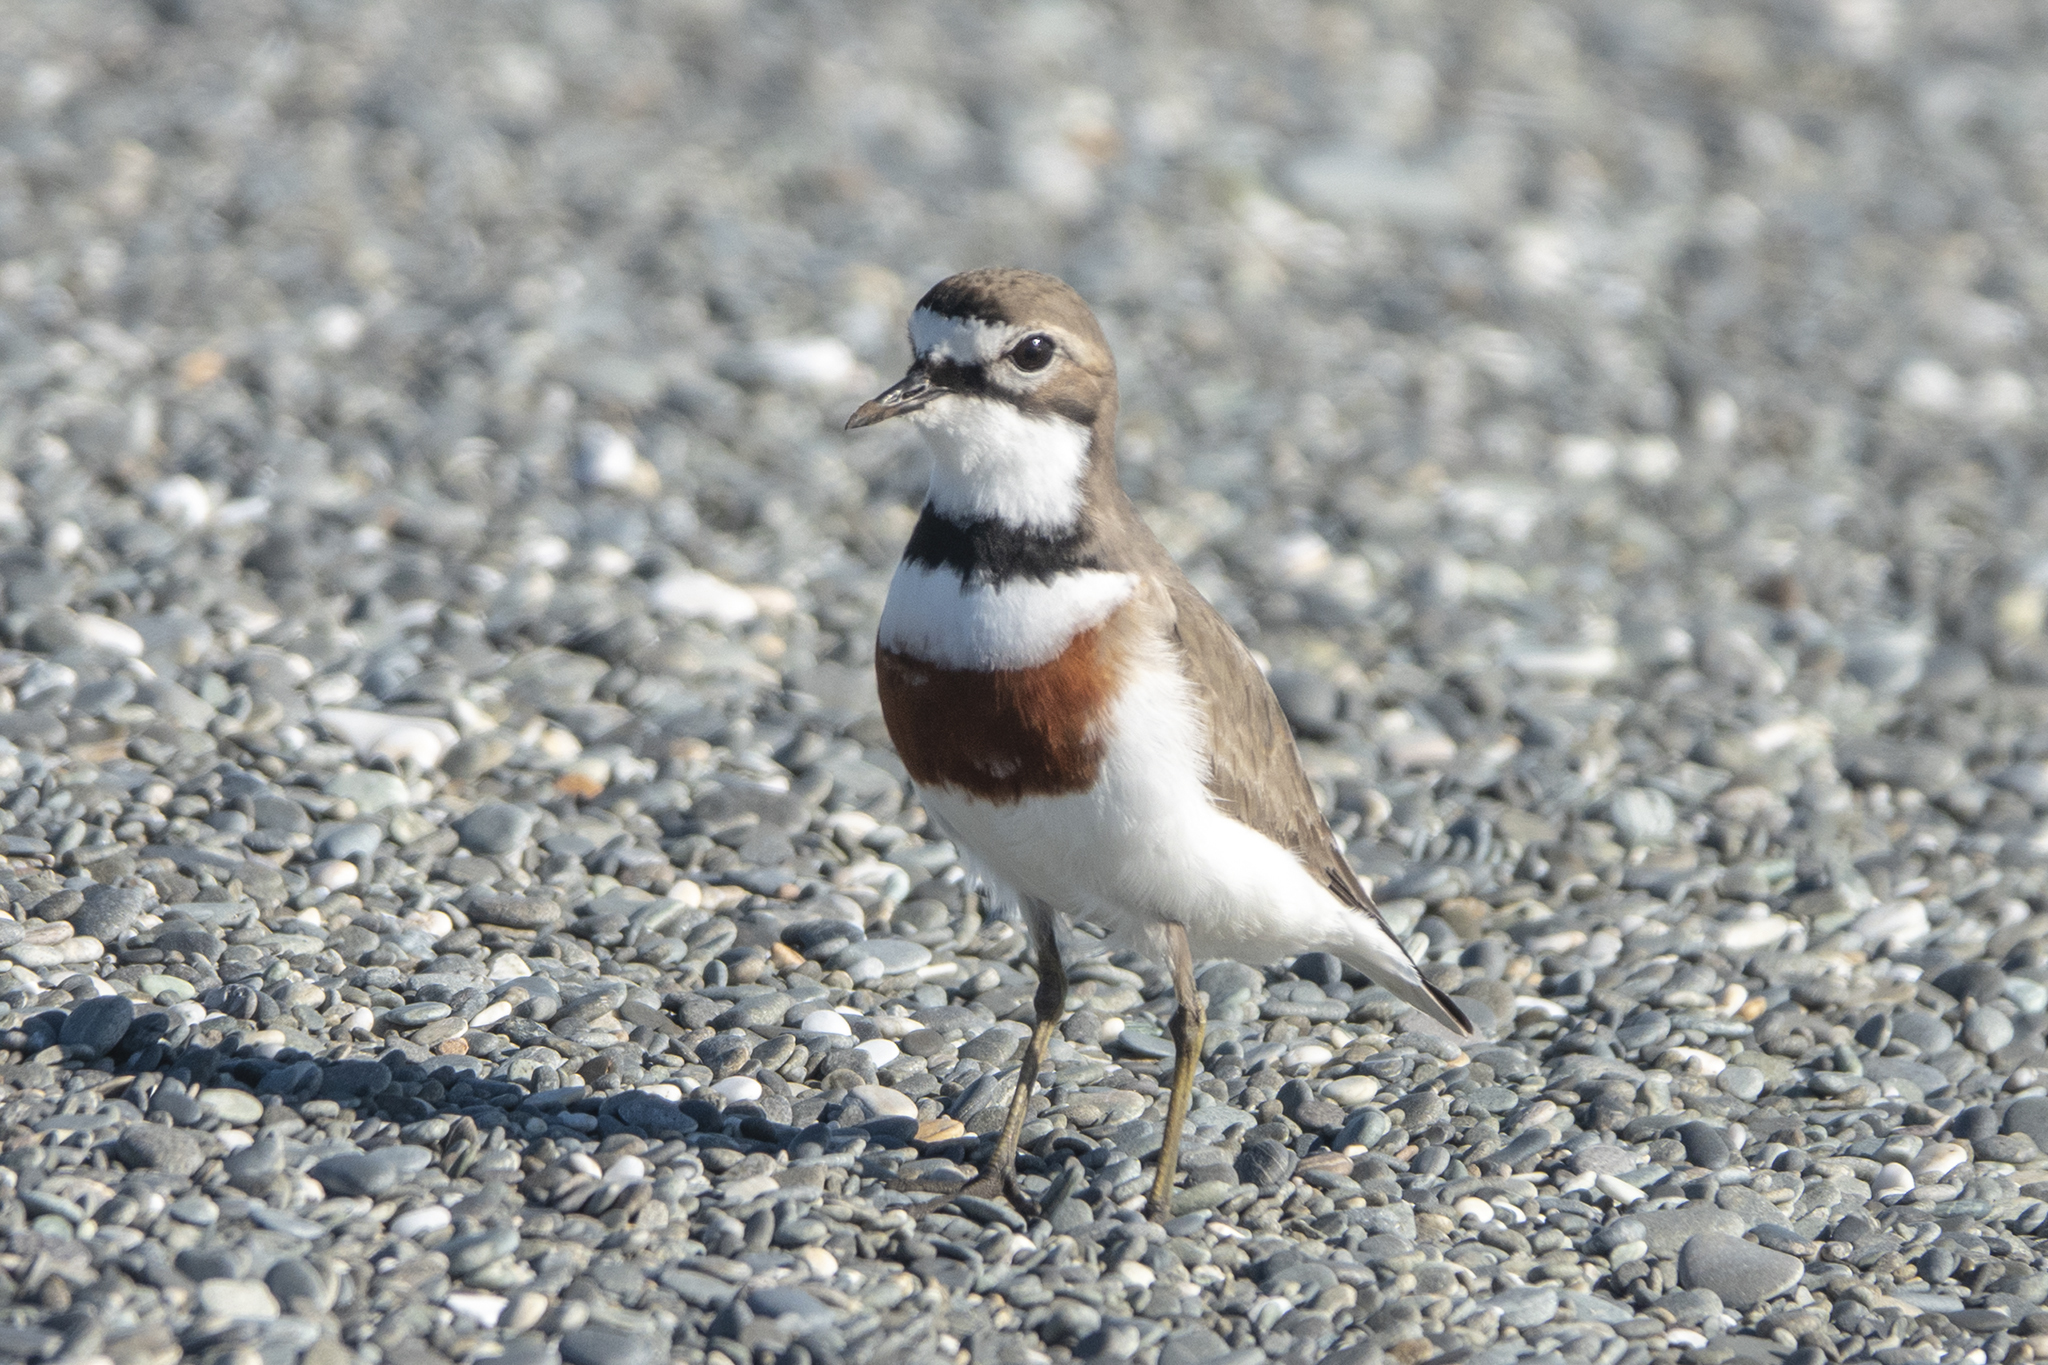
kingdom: Animalia
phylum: Chordata
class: Aves
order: Charadriiformes
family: Charadriidae
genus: Anarhynchus
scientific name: Anarhynchus
